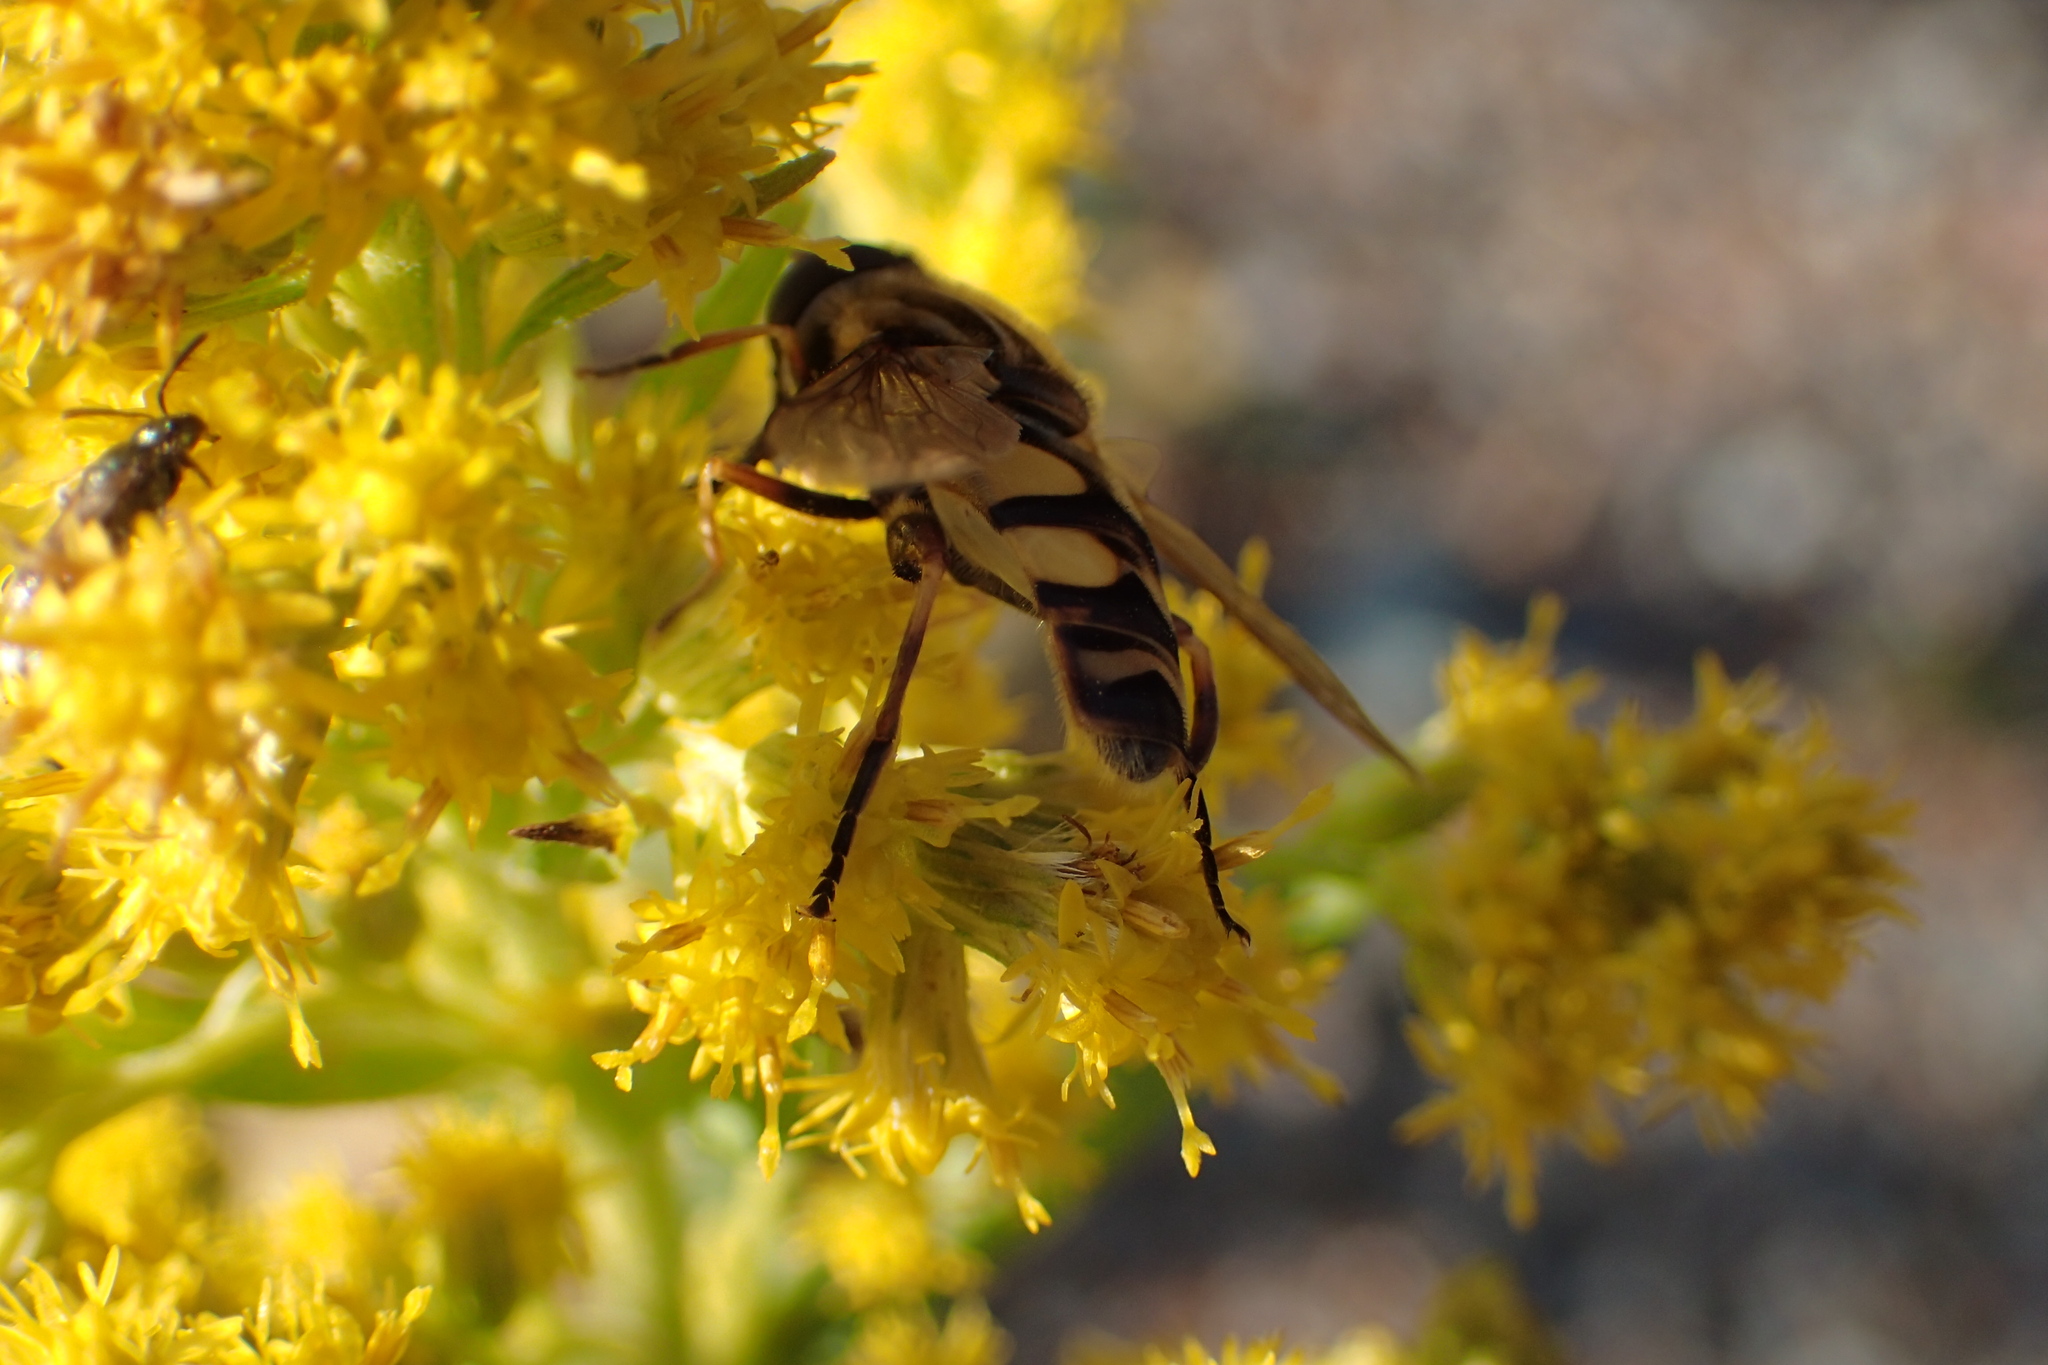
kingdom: Animalia
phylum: Arthropoda
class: Insecta
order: Diptera
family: Syrphidae
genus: Helophilus
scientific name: Helophilus fasciatus
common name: Narrow-headed marsh fly
